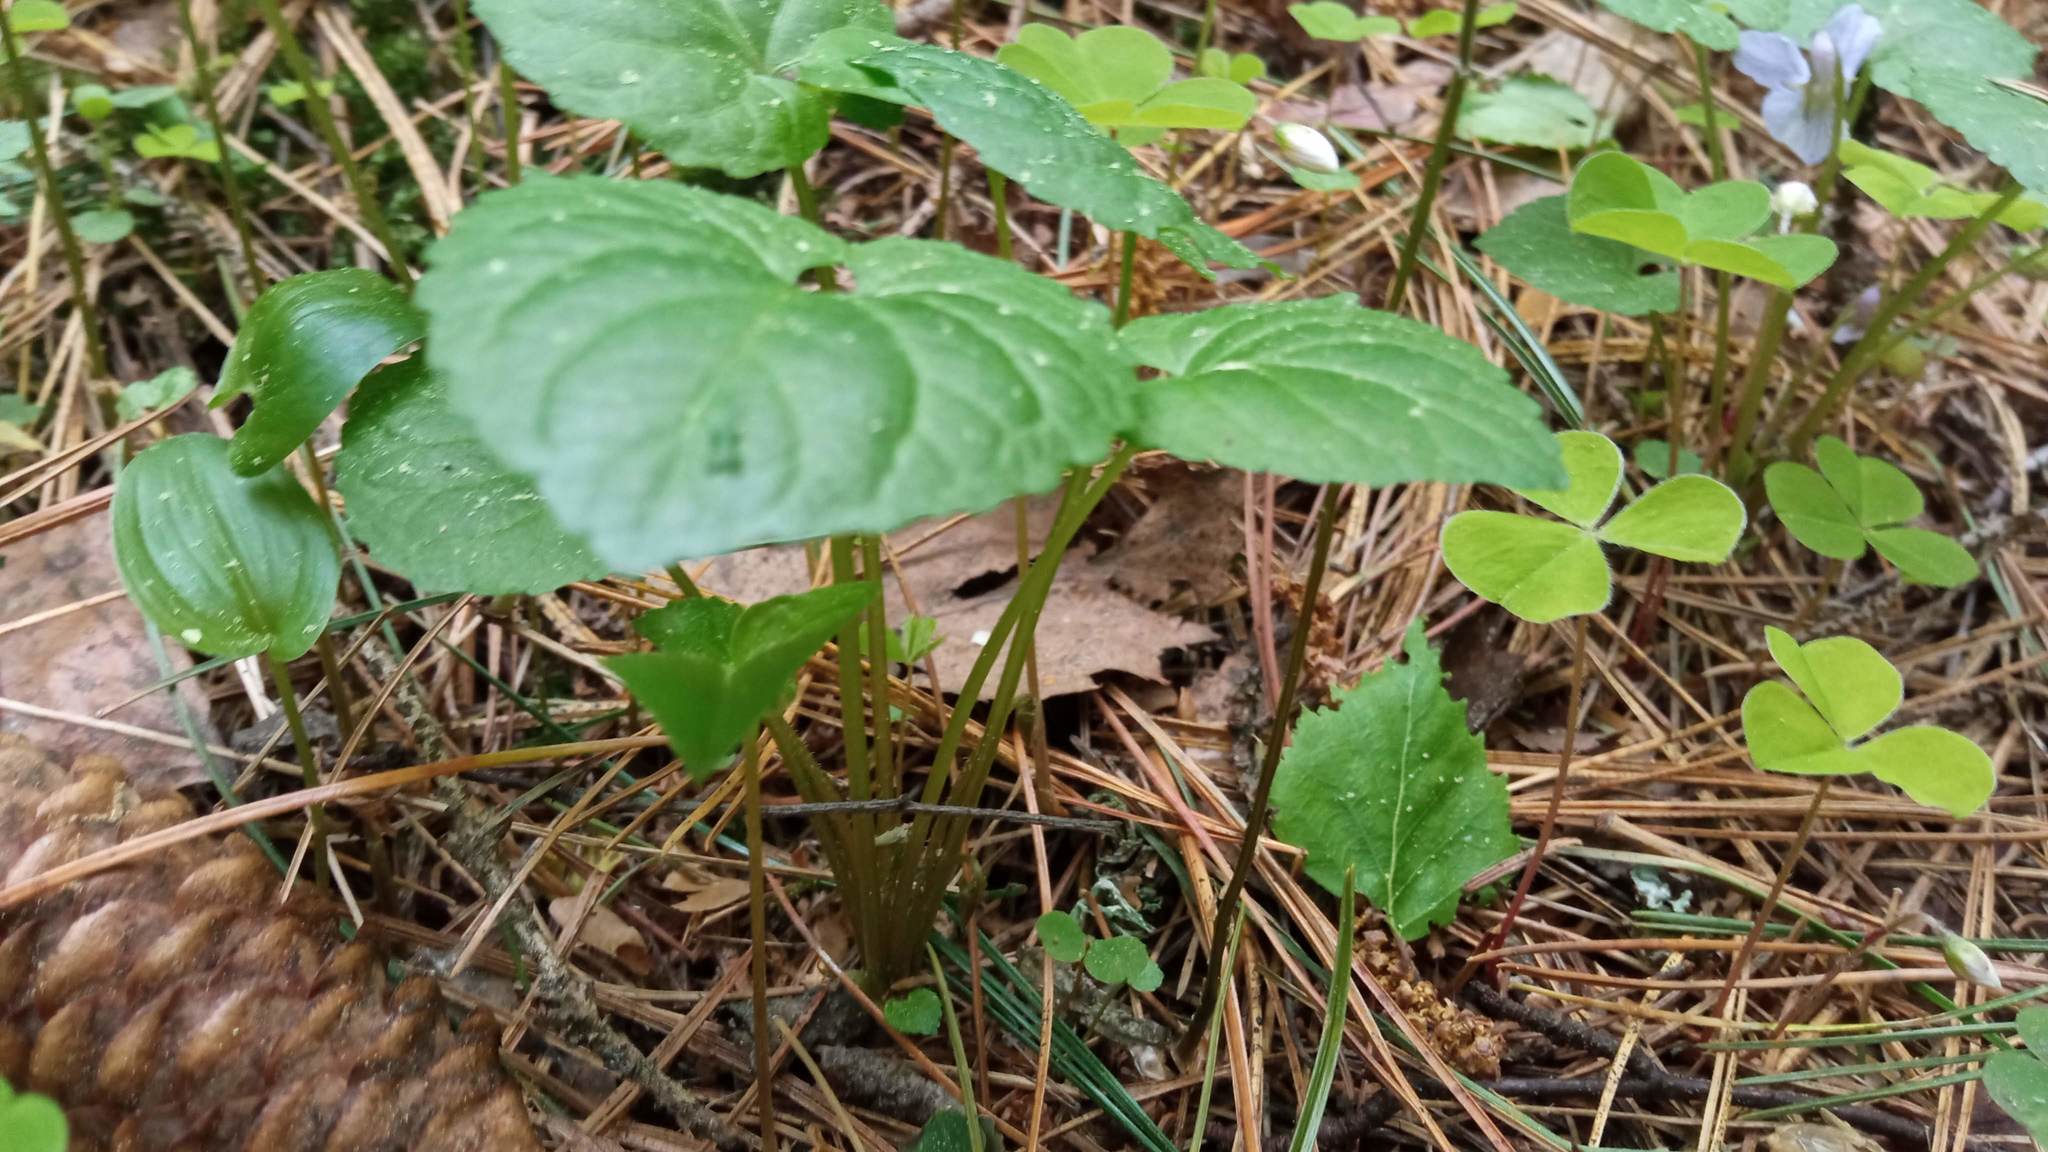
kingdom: Plantae
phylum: Tracheophyta
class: Magnoliopsida
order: Malpighiales
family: Violaceae
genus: Viola
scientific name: Viola selkirkii
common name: Selkirk's violet
